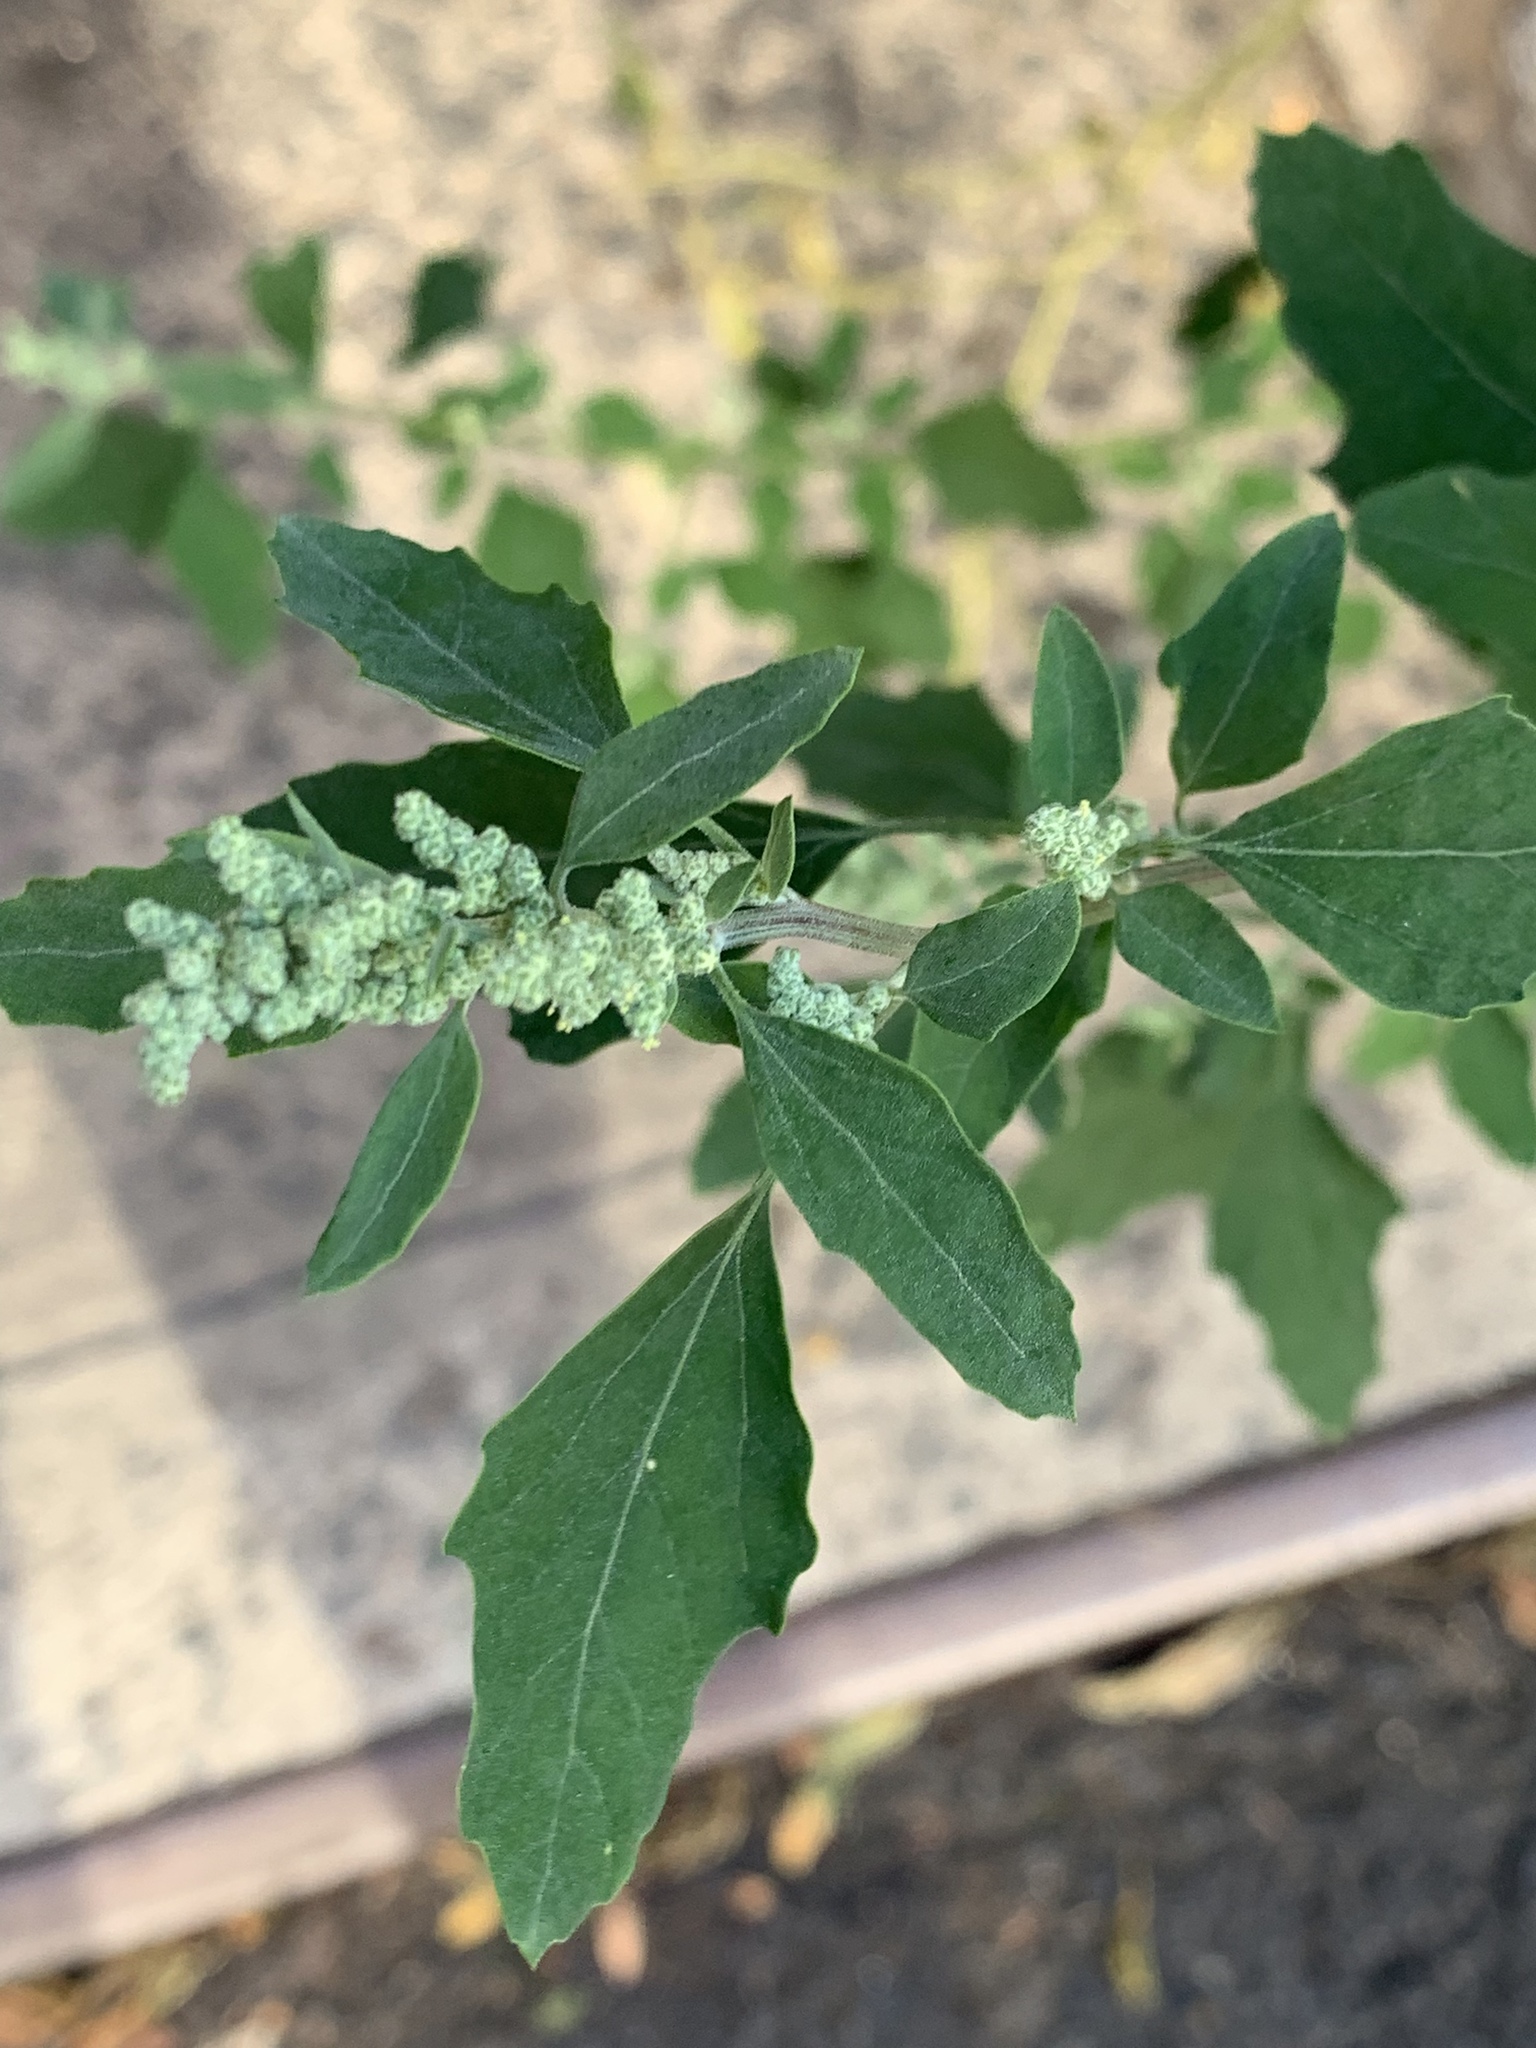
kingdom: Plantae
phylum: Tracheophyta
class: Magnoliopsida
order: Caryophyllales
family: Amaranthaceae
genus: Chenopodium
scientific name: Chenopodium album
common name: Fat-hen
